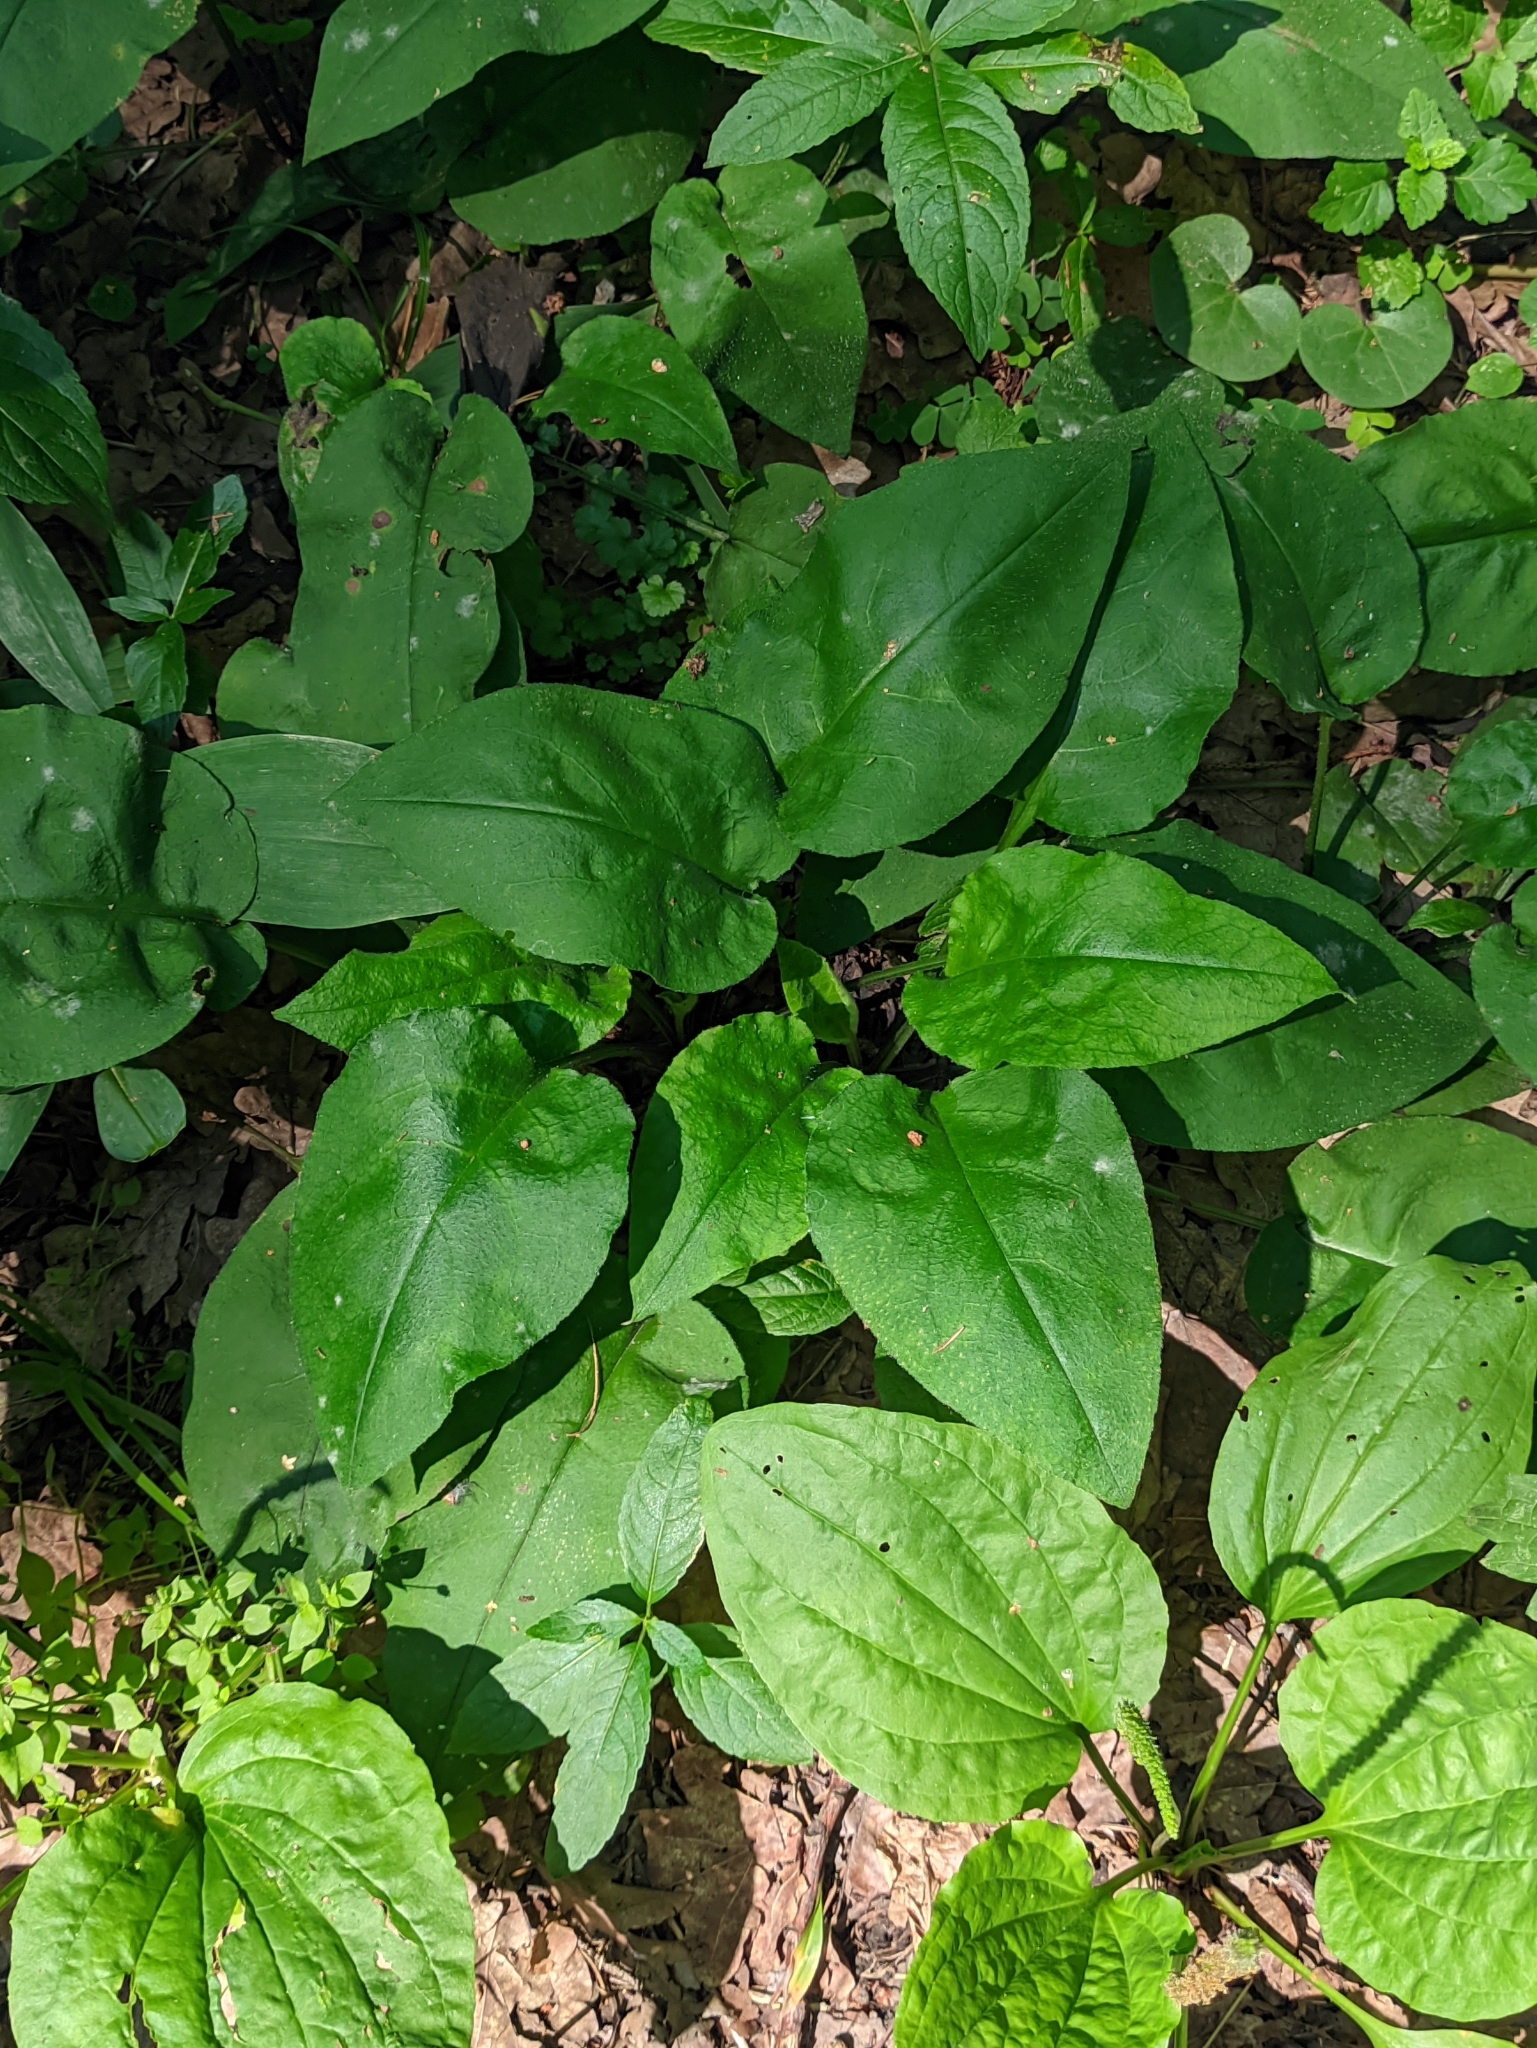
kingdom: Plantae
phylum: Tracheophyta
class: Magnoliopsida
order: Boraginales
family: Boraginaceae
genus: Pulmonaria
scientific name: Pulmonaria obscura
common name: Suffolk lungwort
